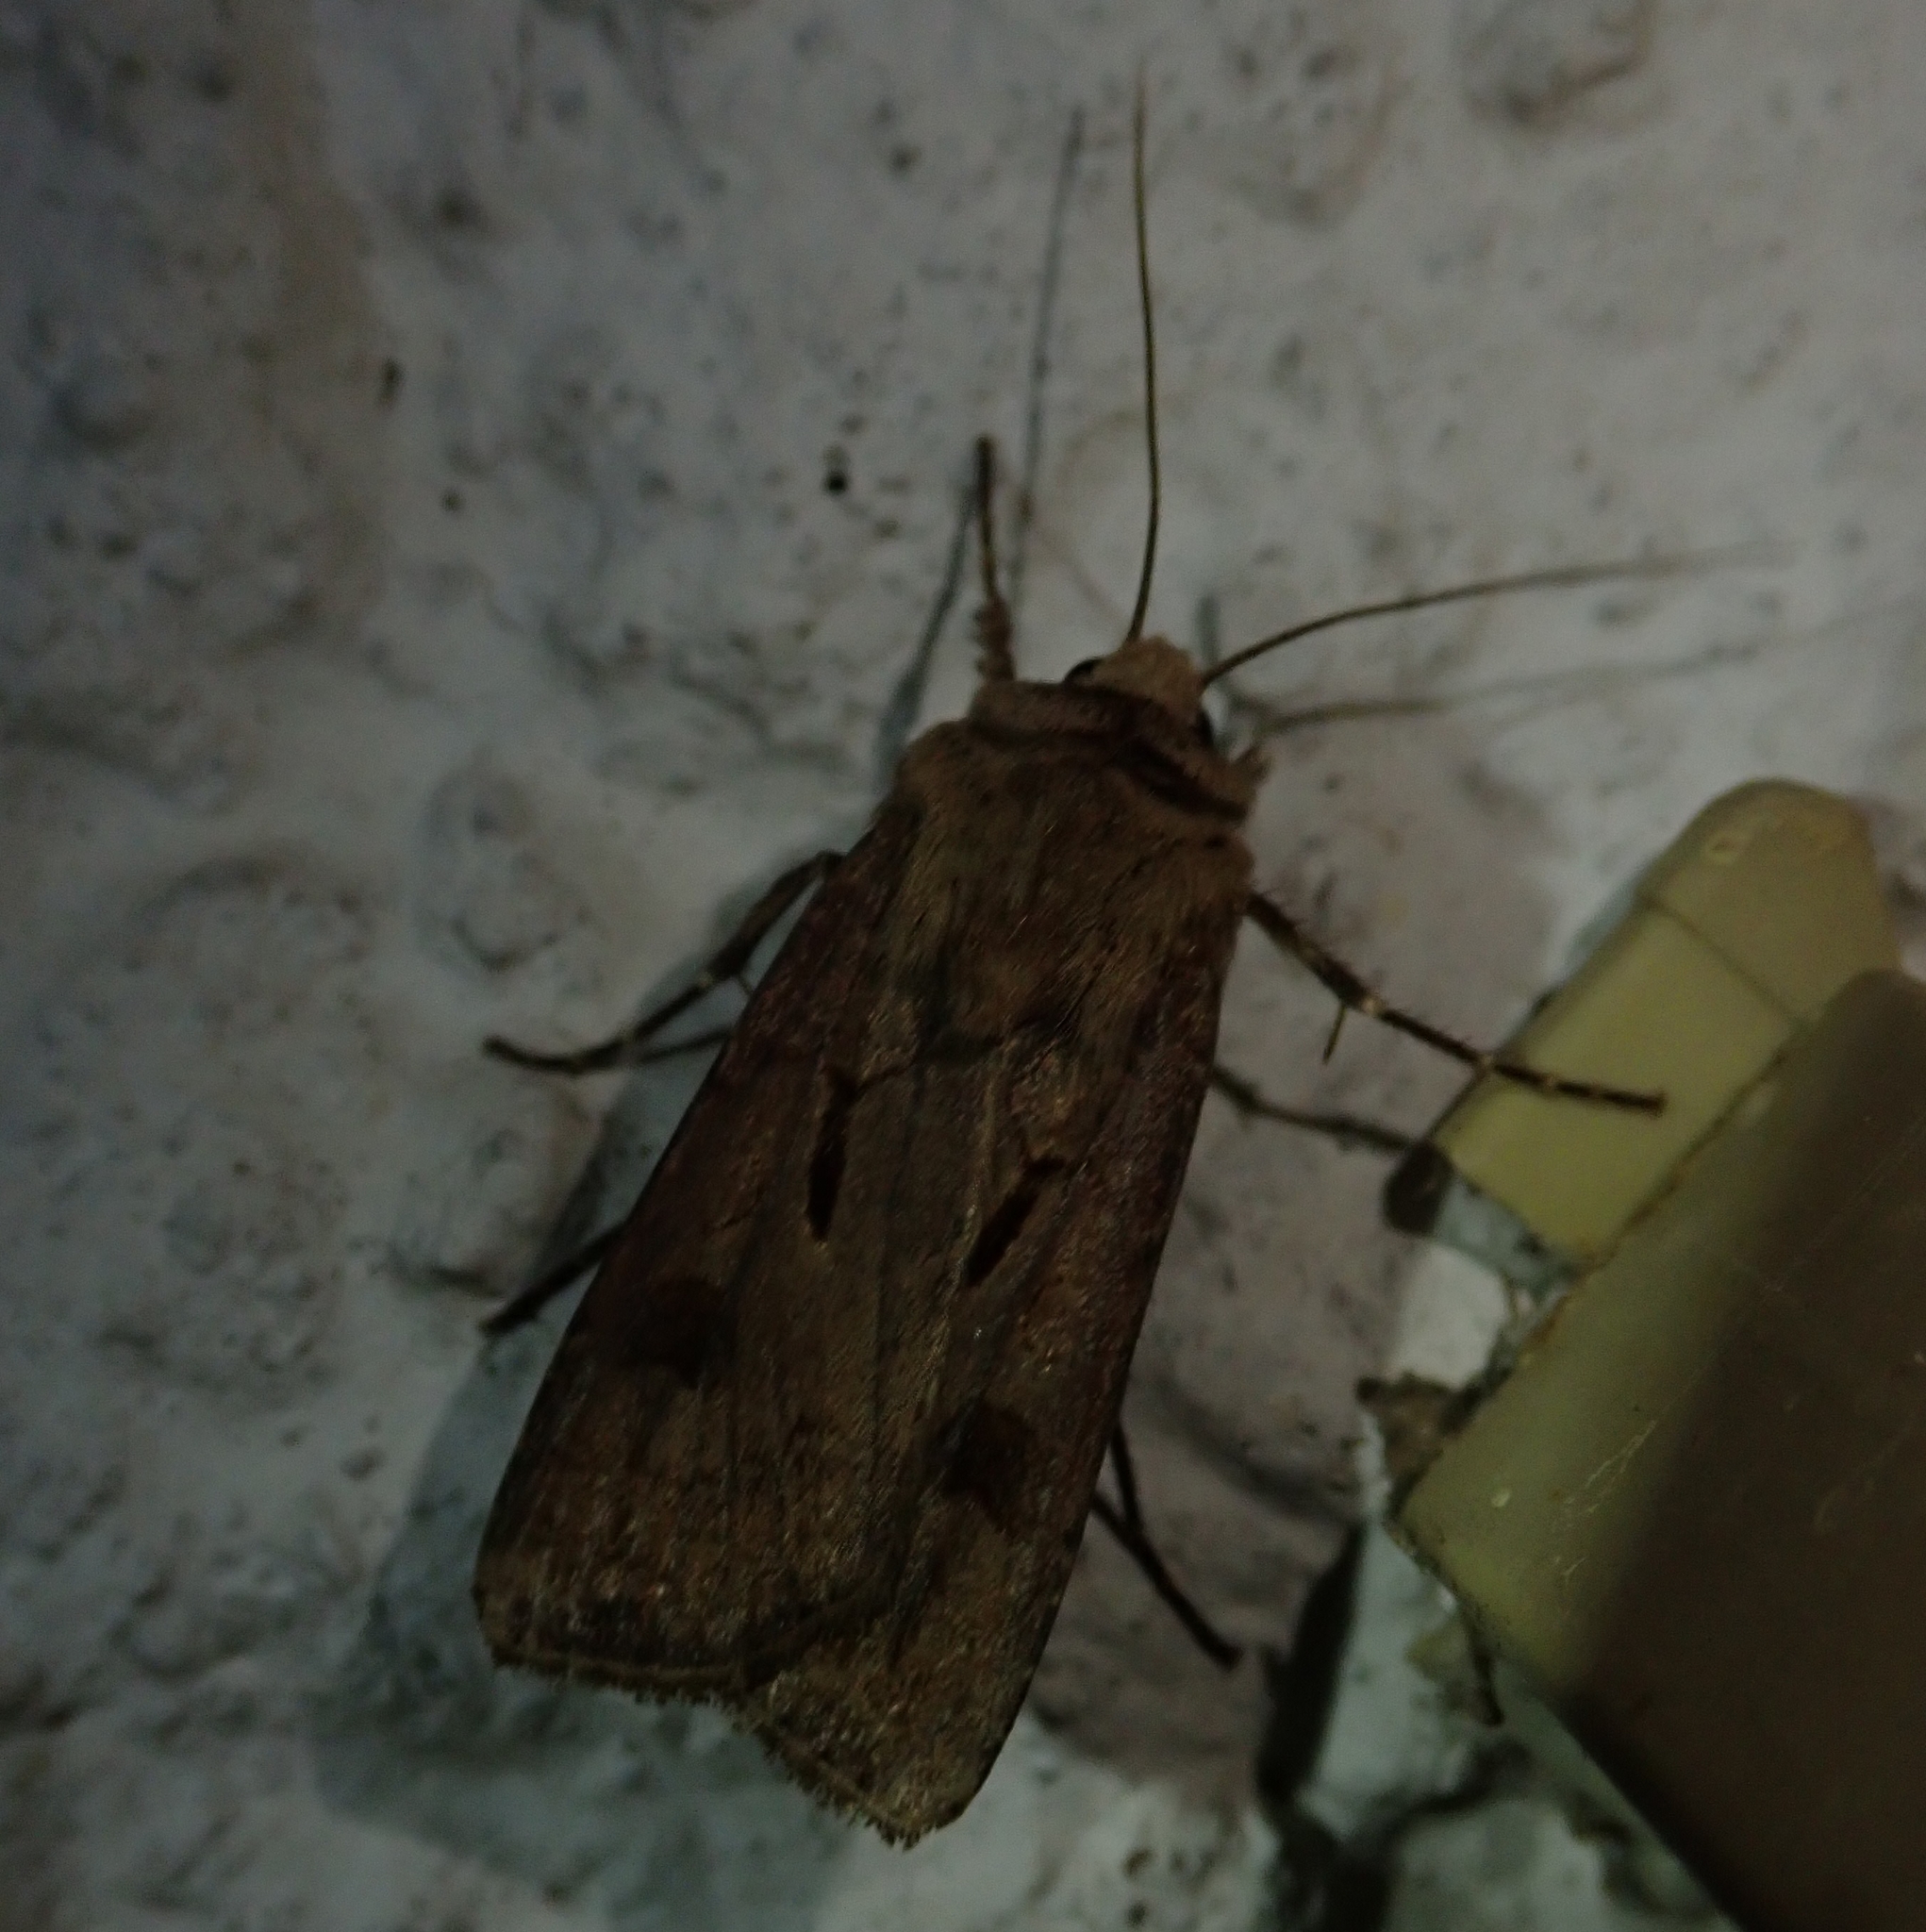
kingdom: Animalia
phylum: Arthropoda
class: Insecta
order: Lepidoptera
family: Noctuidae
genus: Agrotis
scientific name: Agrotis exclamationis
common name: Heart and dart
